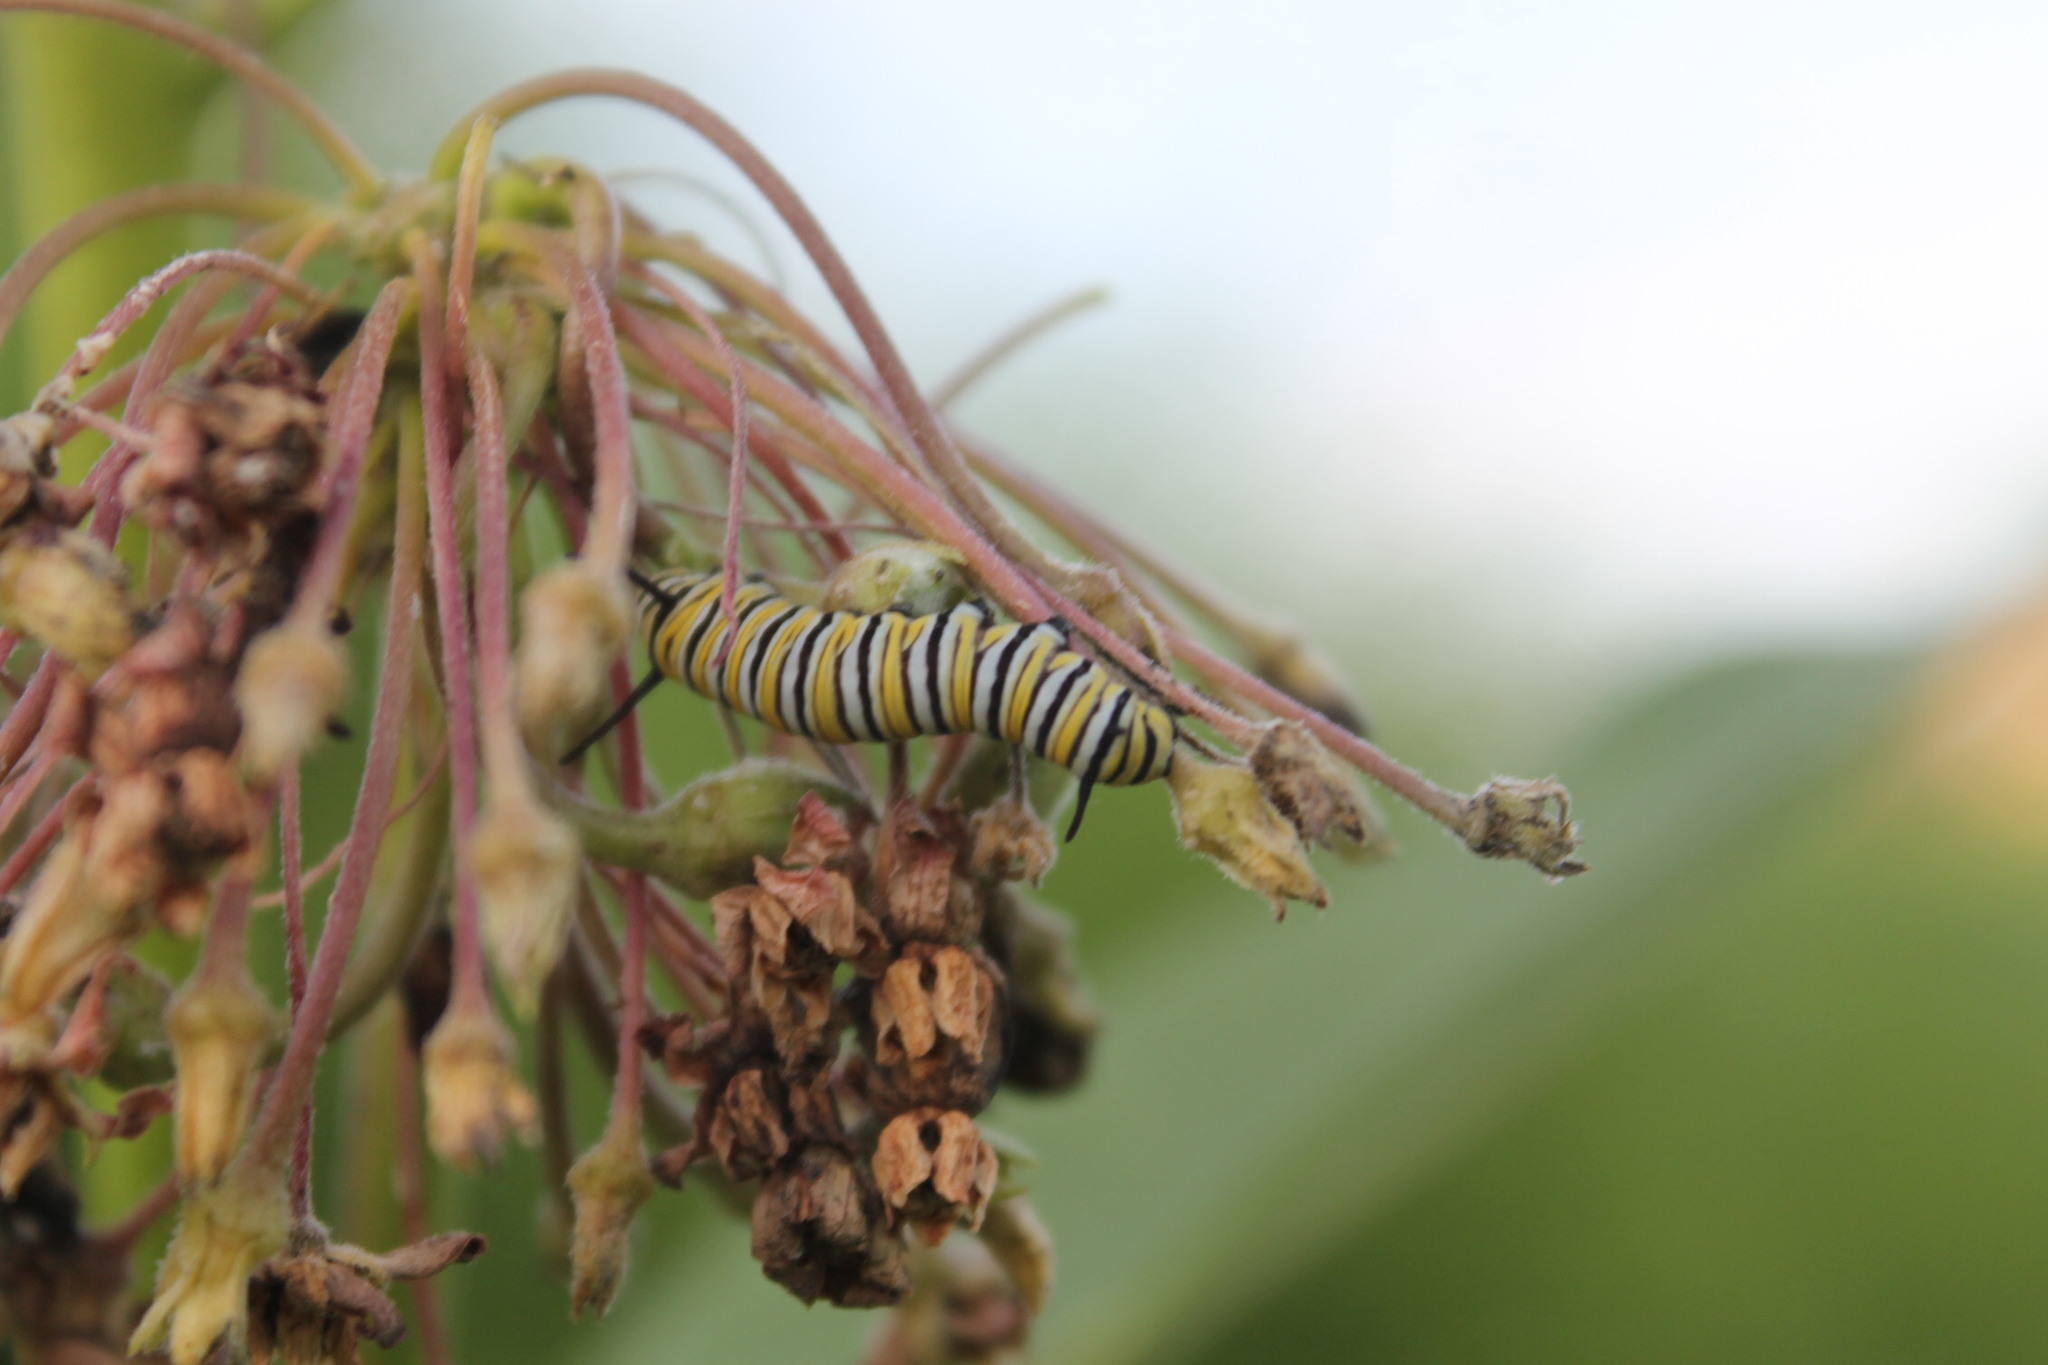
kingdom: Animalia
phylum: Arthropoda
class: Insecta
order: Lepidoptera
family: Nymphalidae
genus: Danaus
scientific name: Danaus plexippus
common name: Monarch
